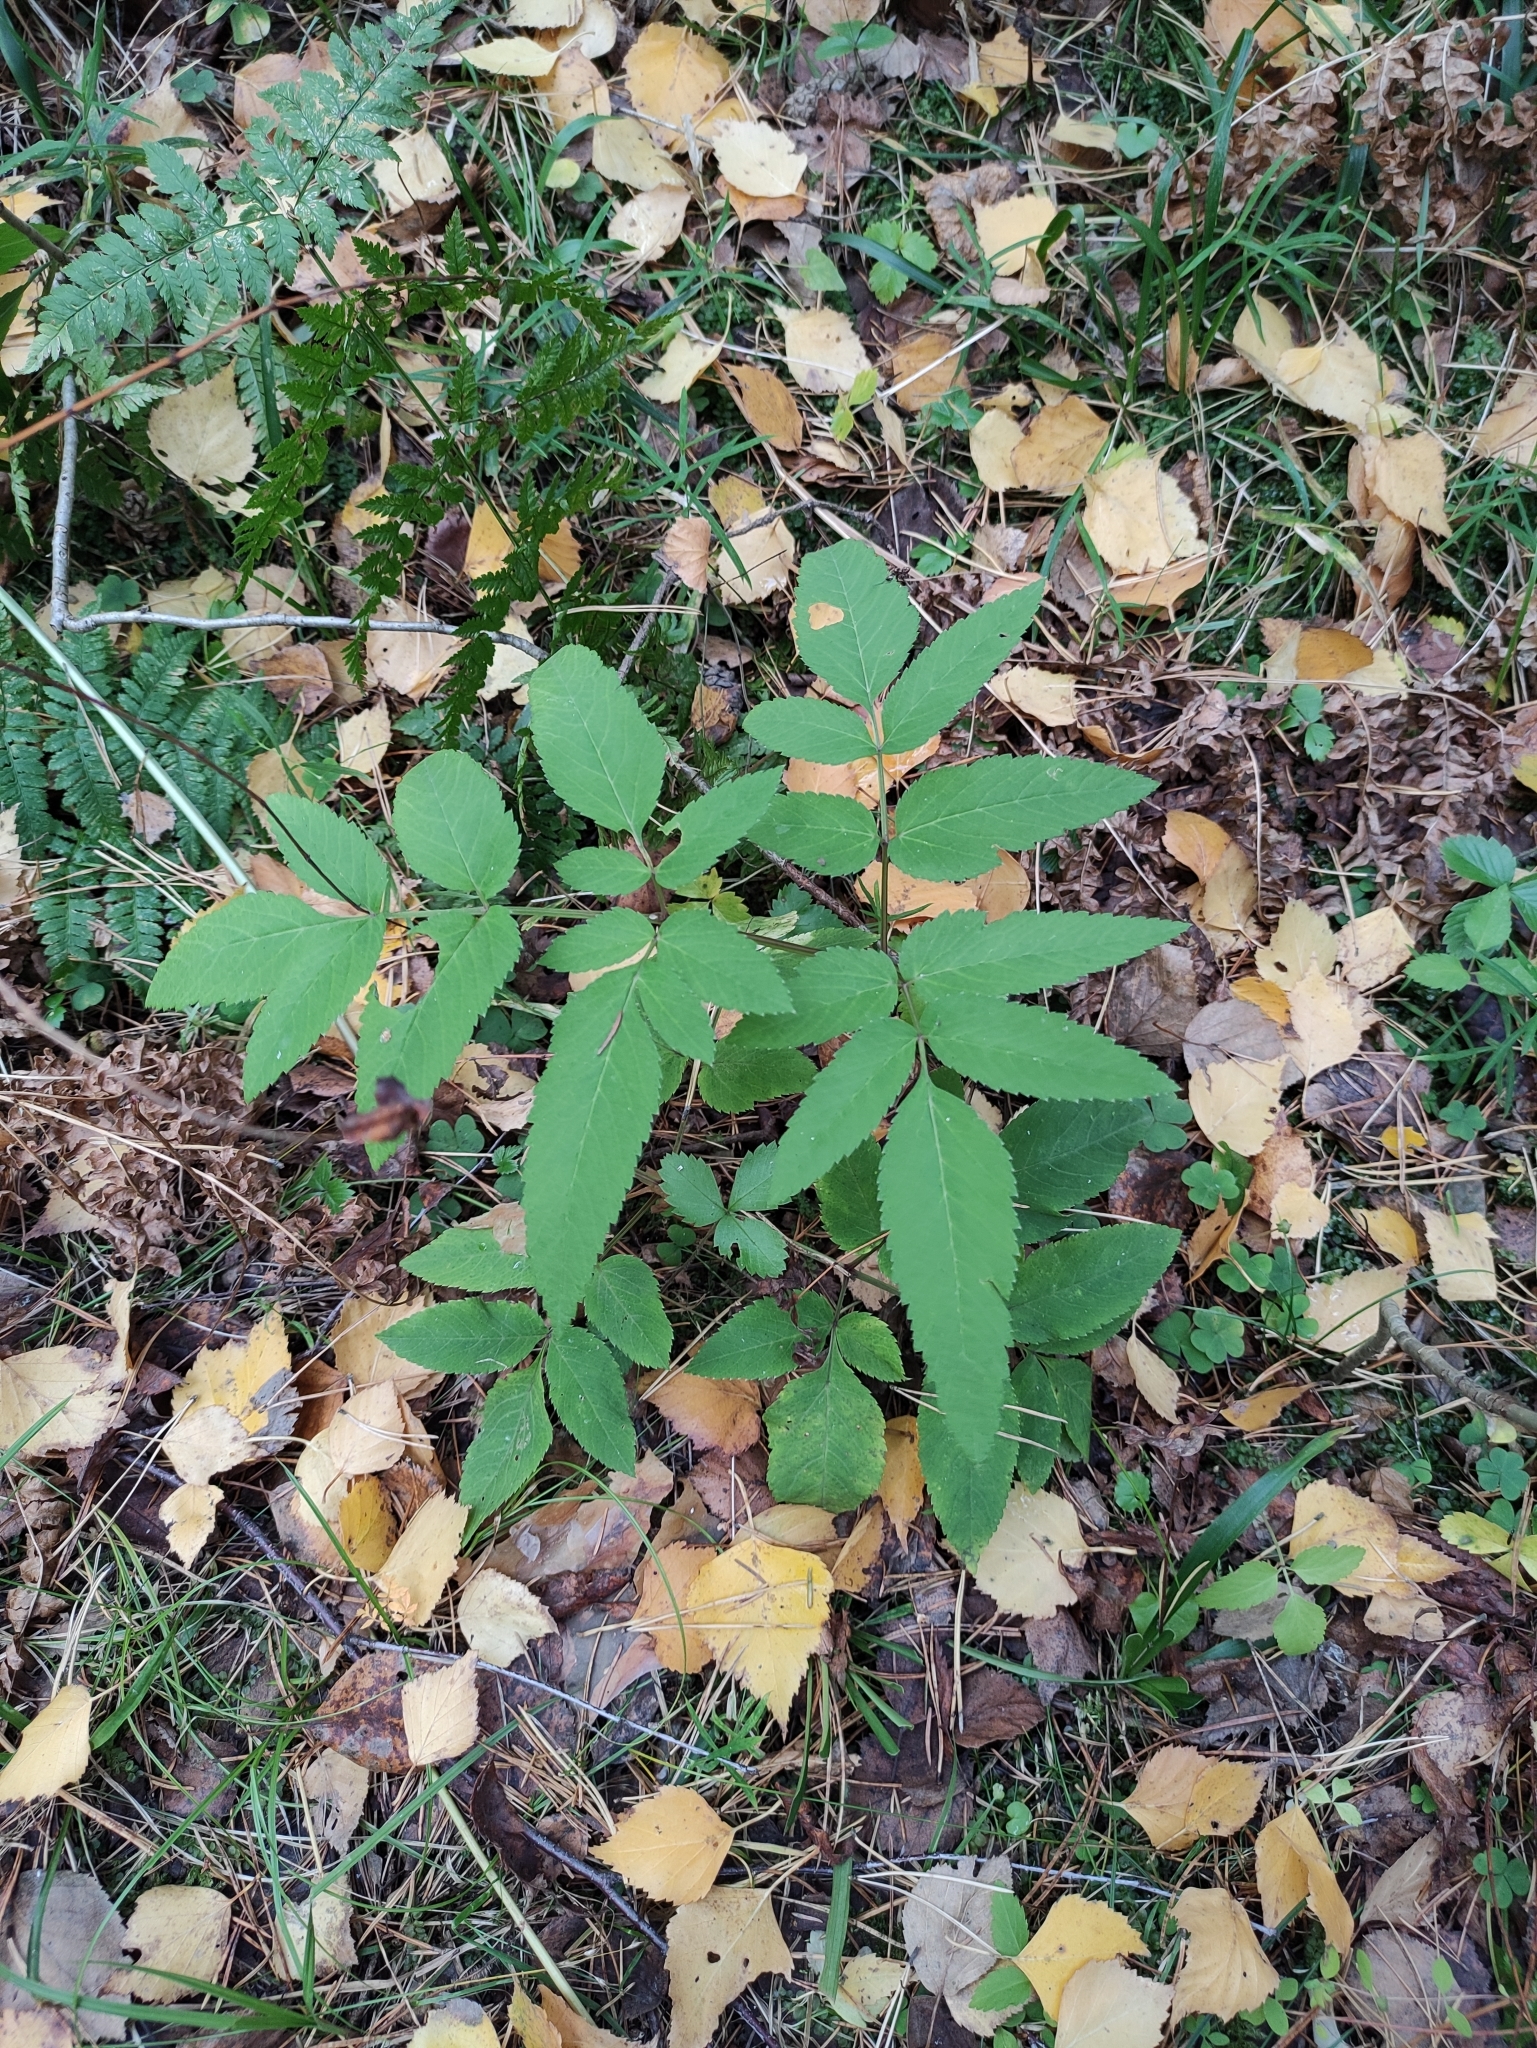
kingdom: Plantae
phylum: Tracheophyta
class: Magnoliopsida
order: Apiales
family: Apiaceae
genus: Angelica
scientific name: Angelica sylvestris
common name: Wild angelica
